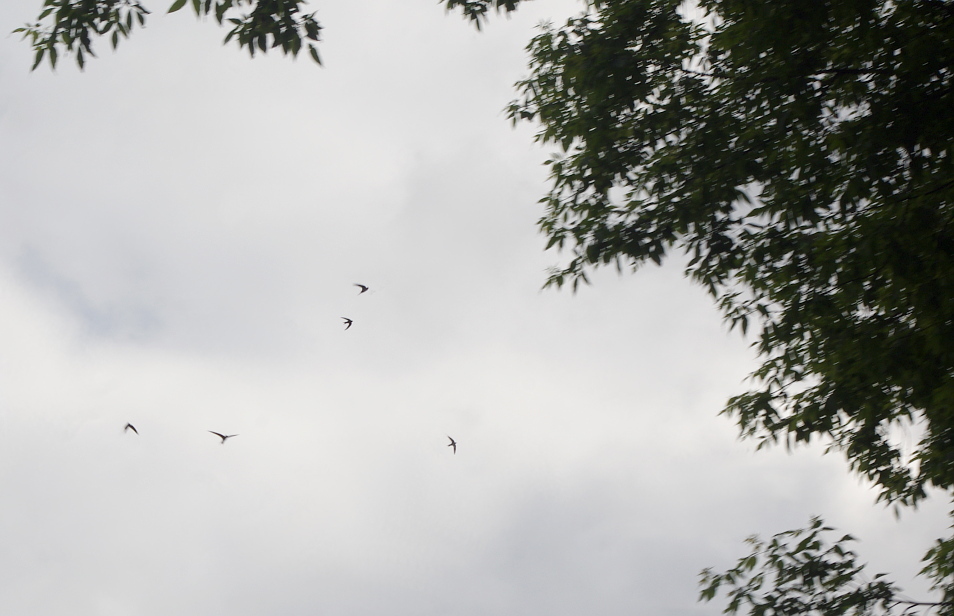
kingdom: Animalia
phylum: Chordata
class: Aves
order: Apodiformes
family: Apodidae
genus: Apus
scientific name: Apus apus
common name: Common swift
